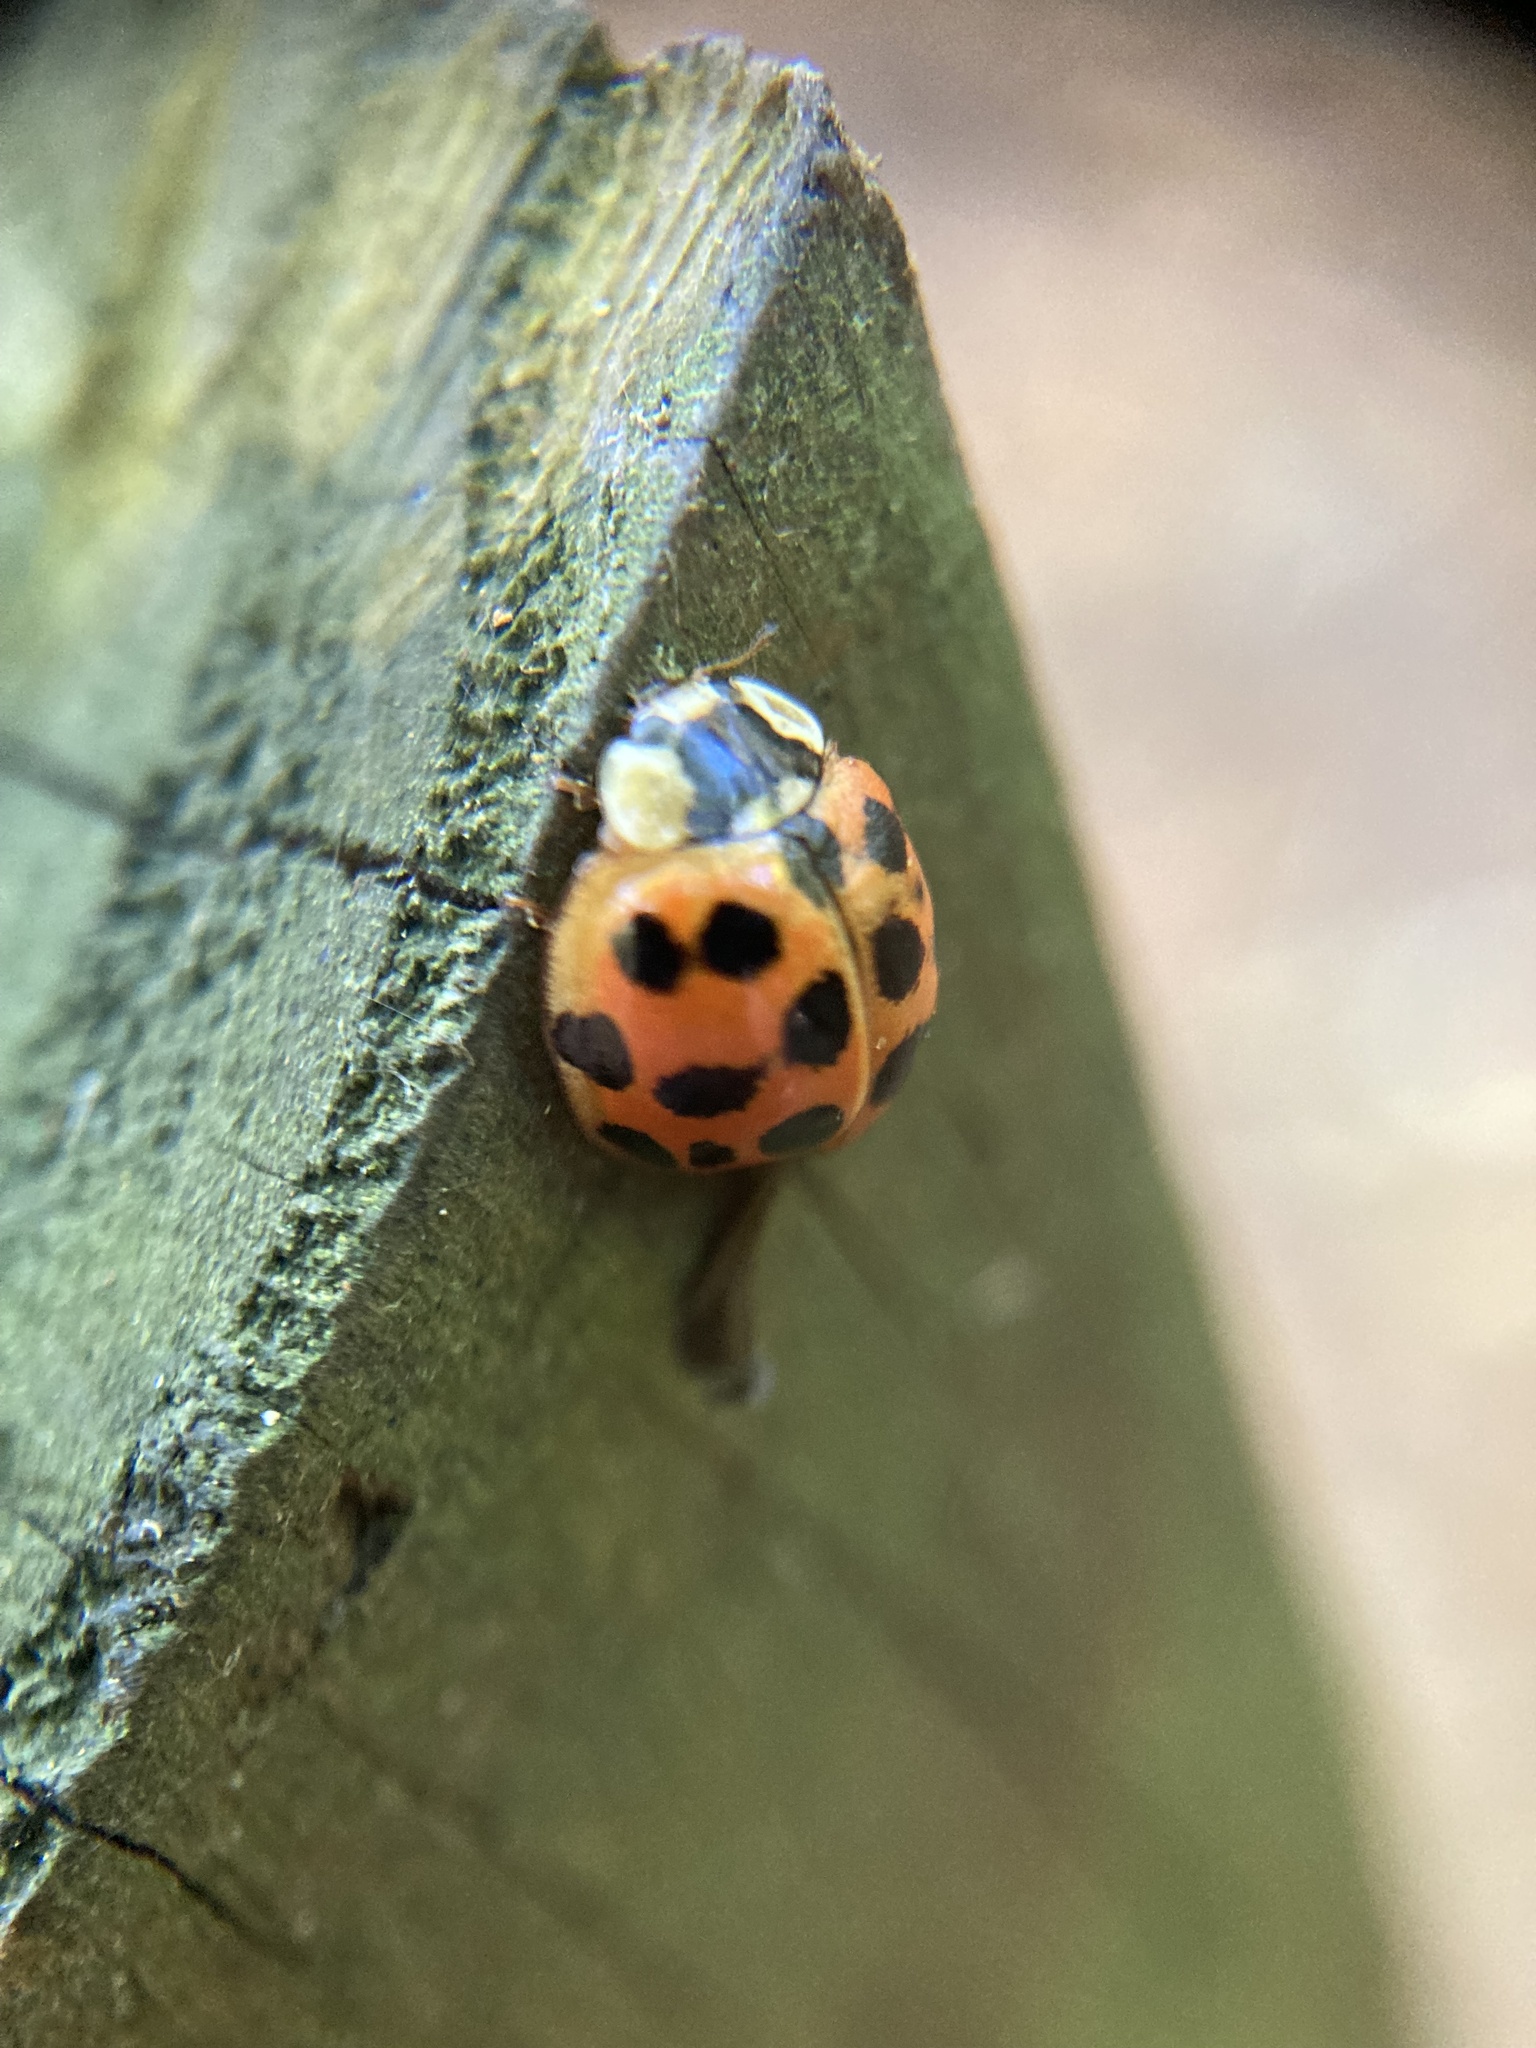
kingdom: Animalia
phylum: Arthropoda
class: Insecta
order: Coleoptera
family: Coccinellidae
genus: Harmonia
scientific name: Harmonia axyridis
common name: Harlequin ladybird
